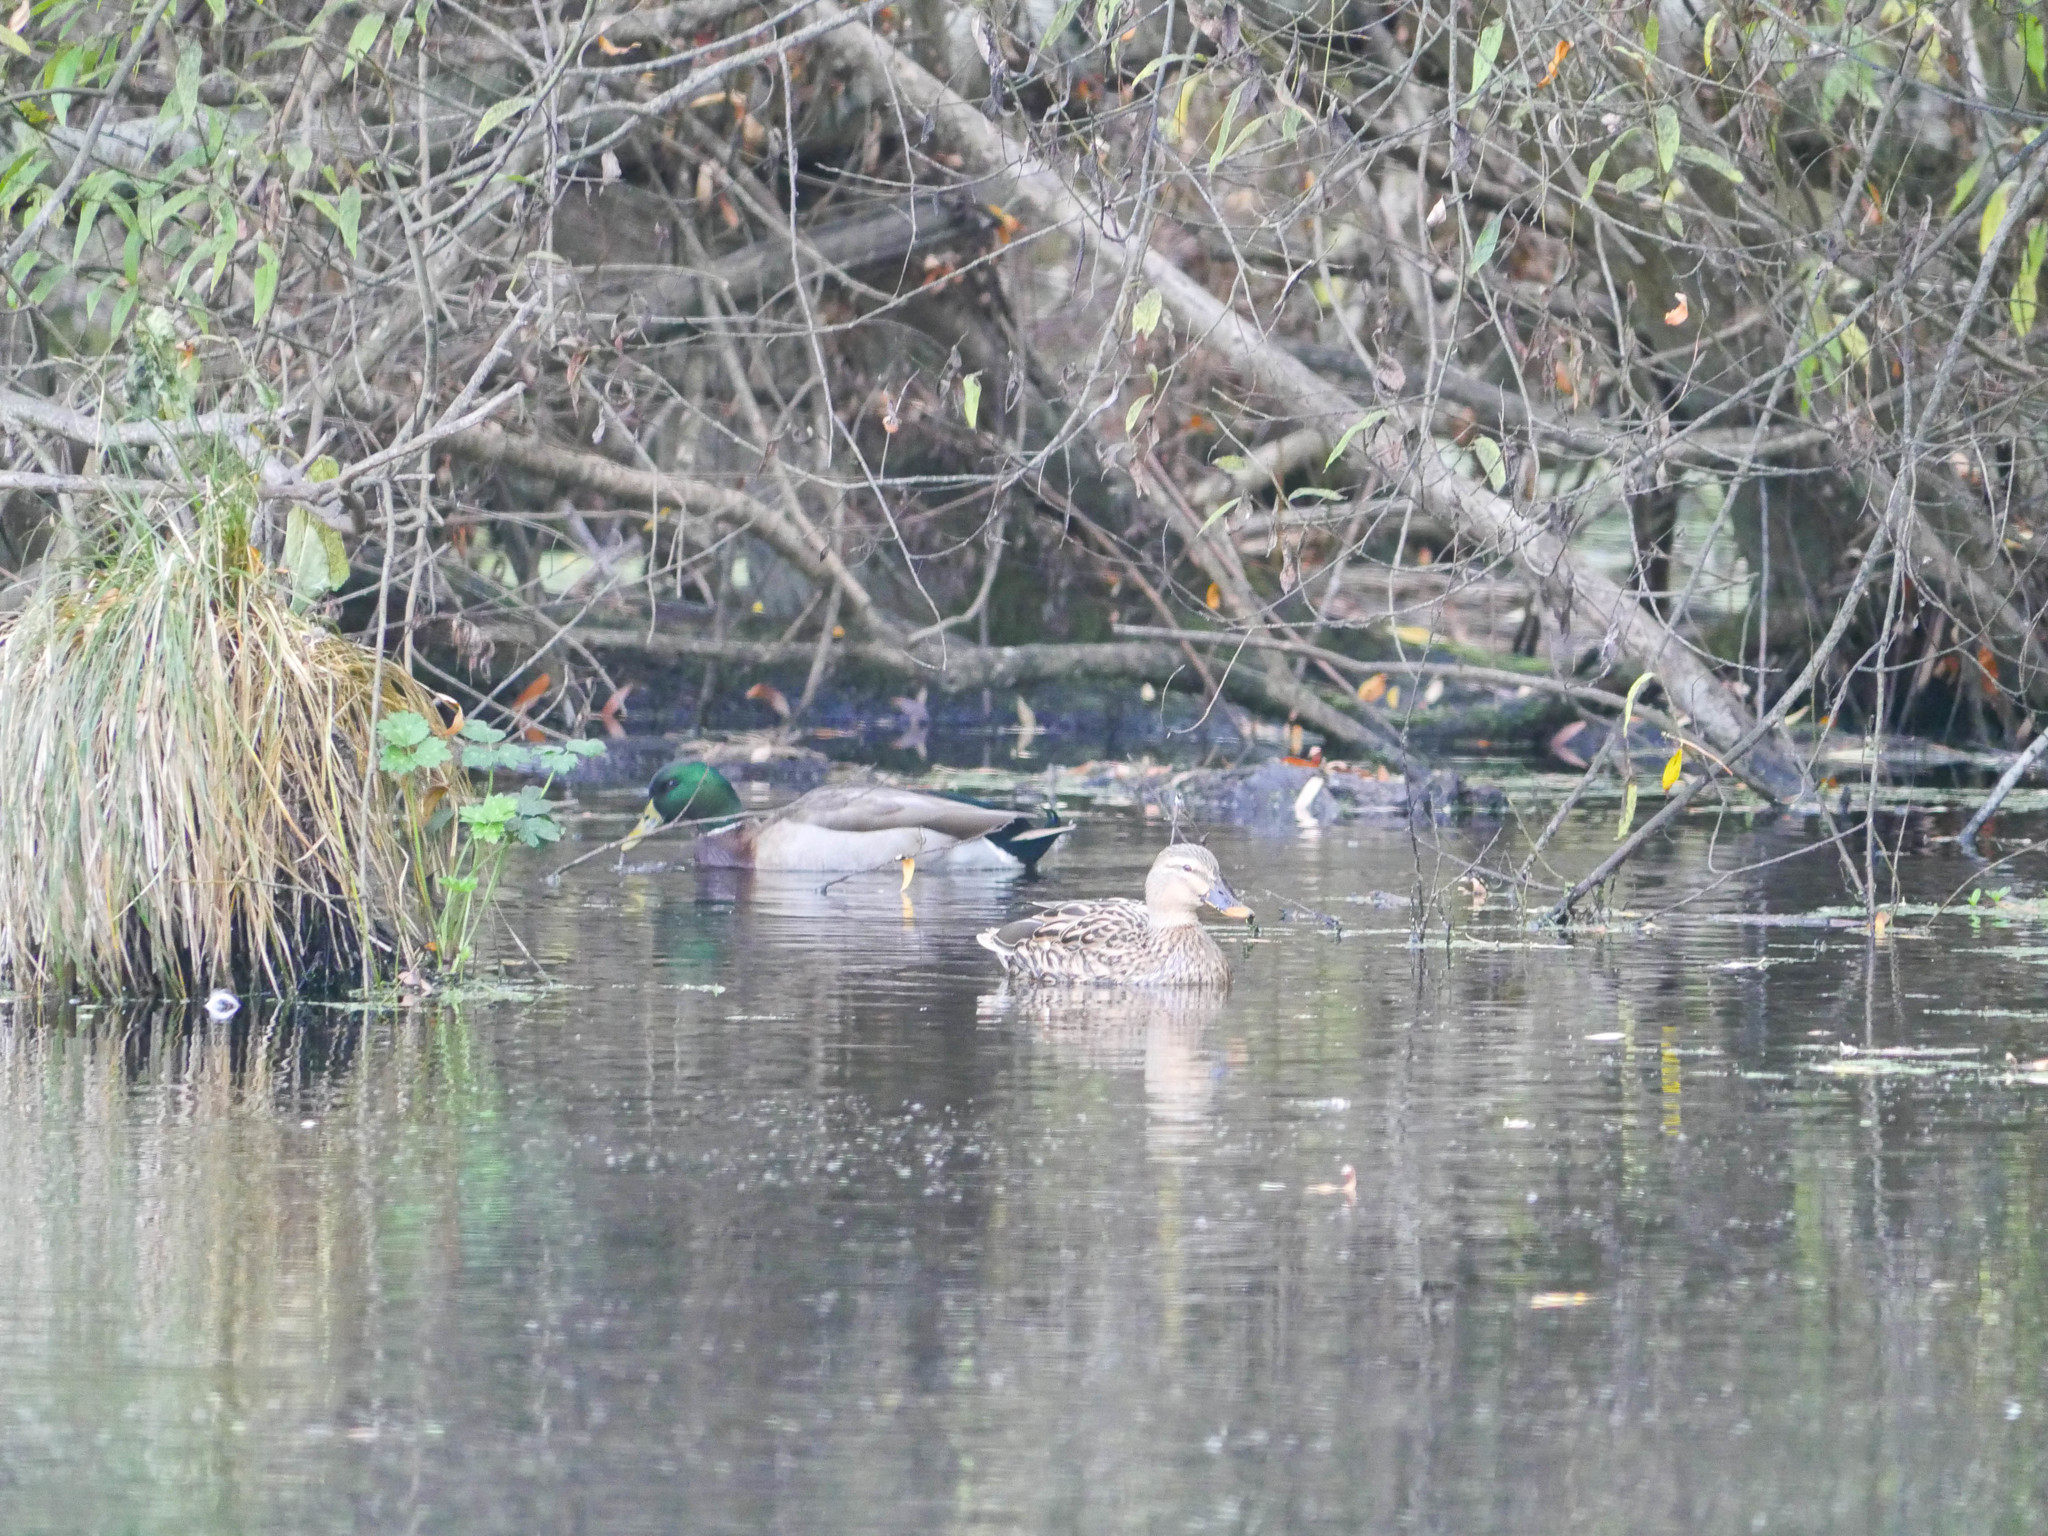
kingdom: Animalia
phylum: Chordata
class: Aves
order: Anseriformes
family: Anatidae
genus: Anas
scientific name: Anas platyrhynchos
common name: Mallard
